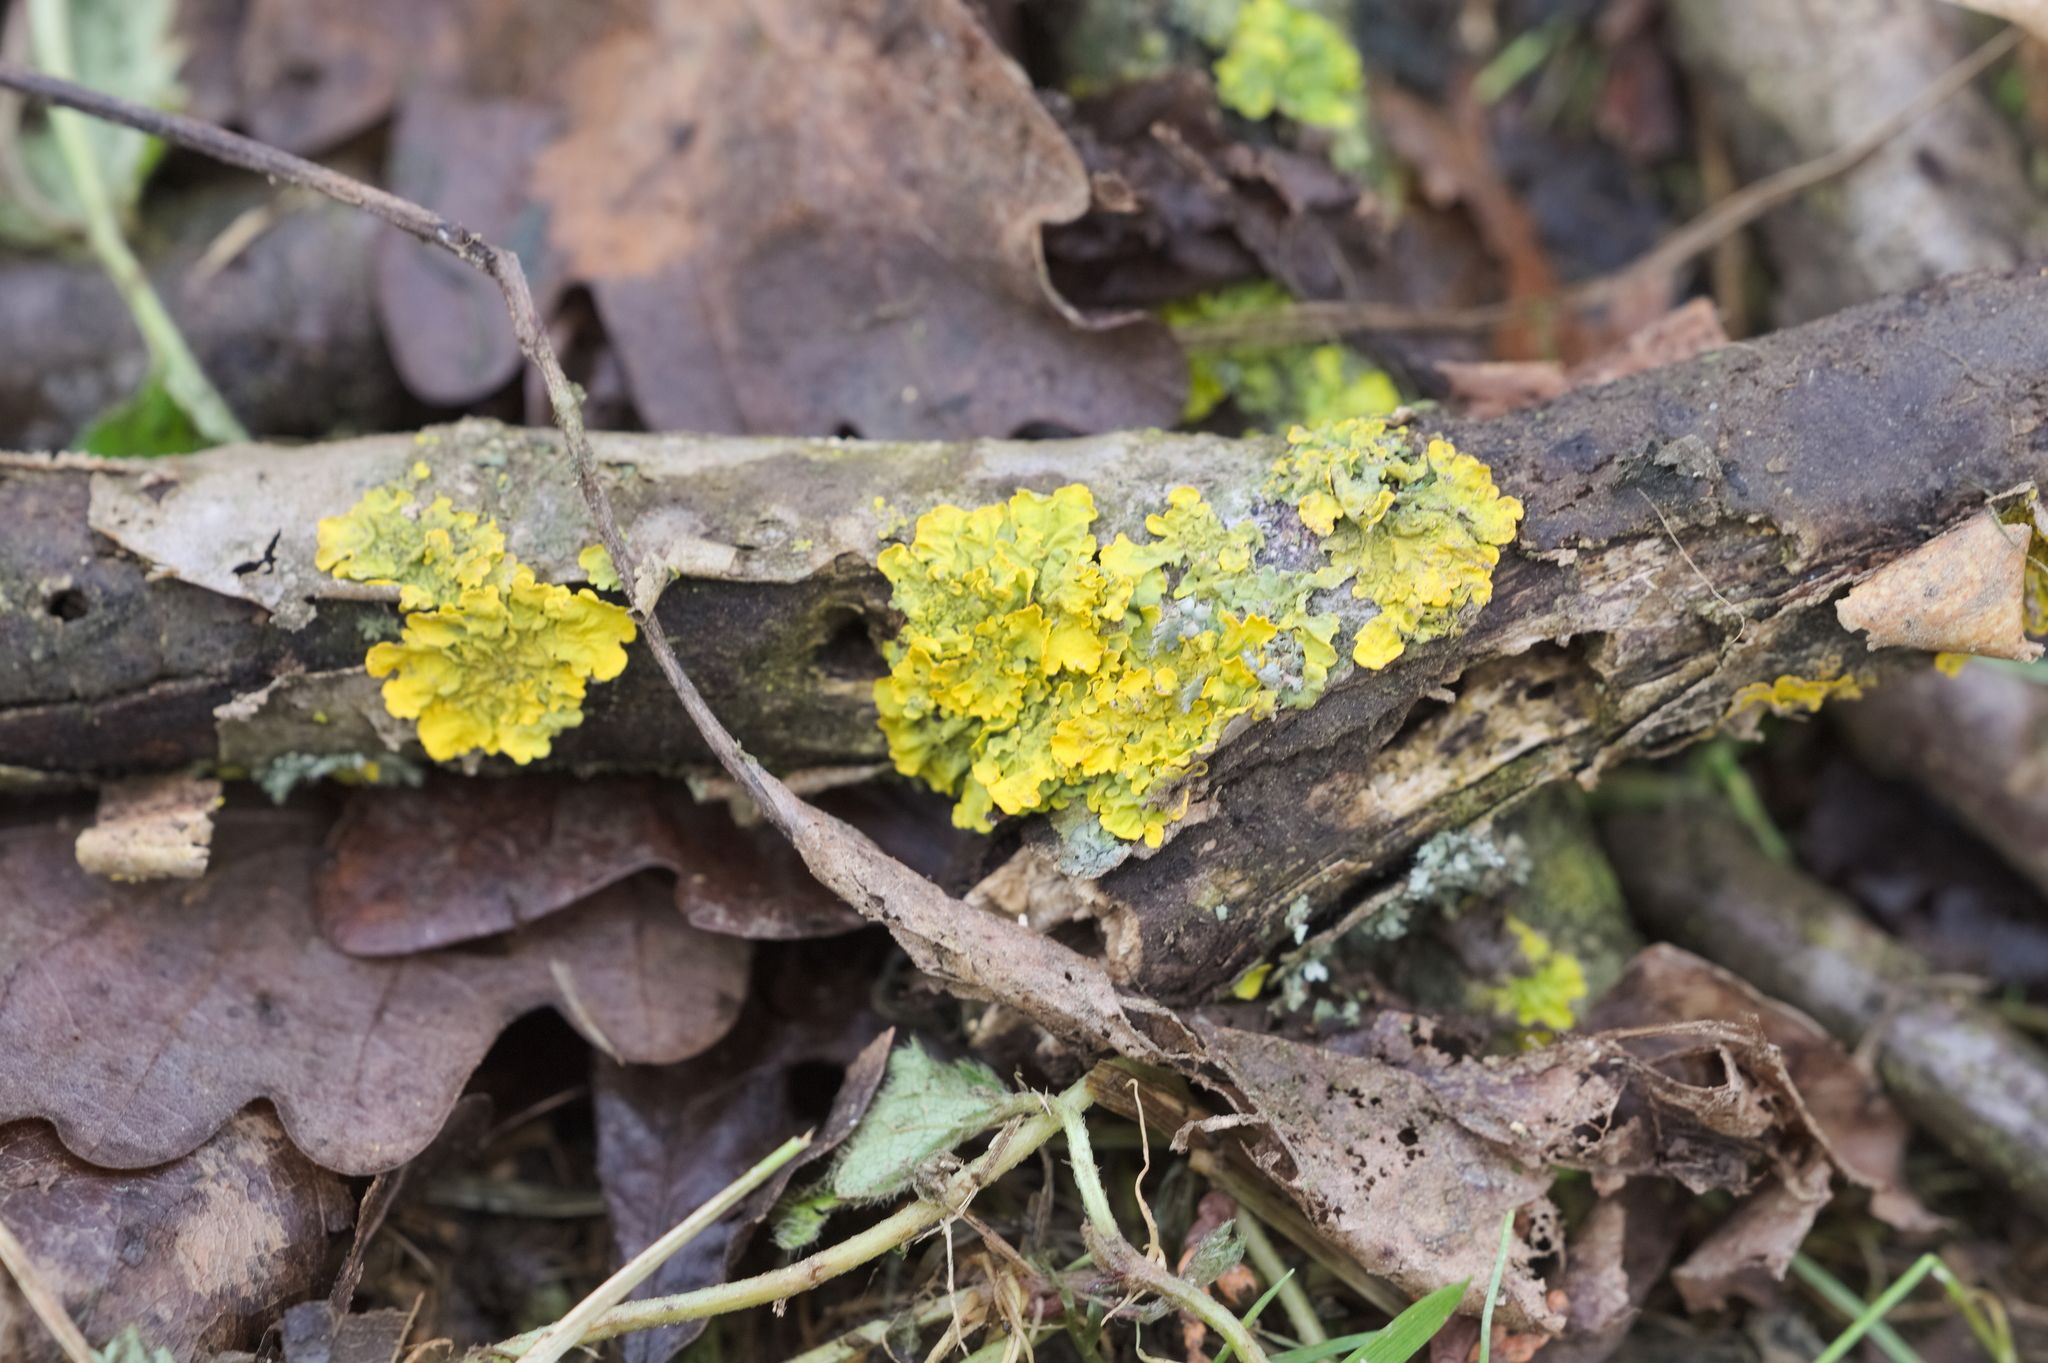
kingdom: Fungi
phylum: Ascomycota
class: Lecanoromycetes
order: Teloschistales
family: Teloschistaceae
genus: Xanthoria
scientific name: Xanthoria parietina
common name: Common orange lichen
